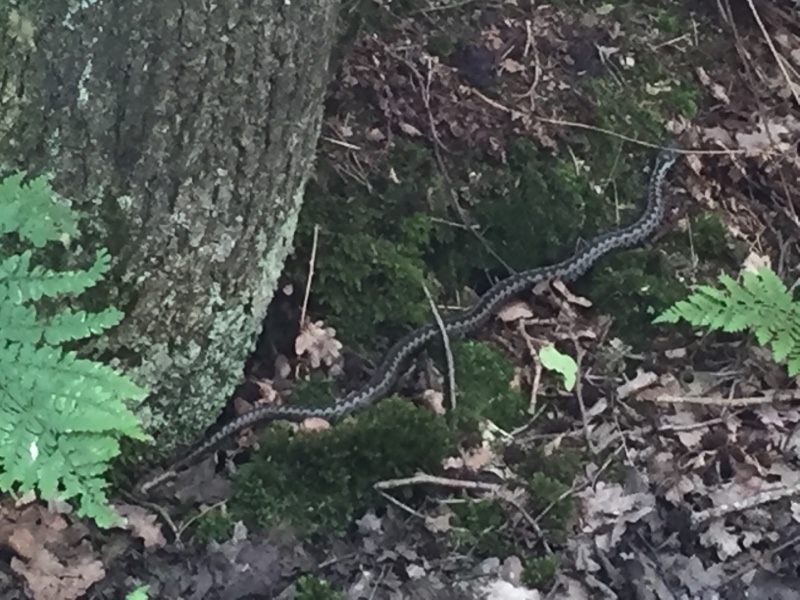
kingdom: Animalia
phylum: Chordata
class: Squamata
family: Viperidae
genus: Vipera
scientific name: Vipera berus
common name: Adder
